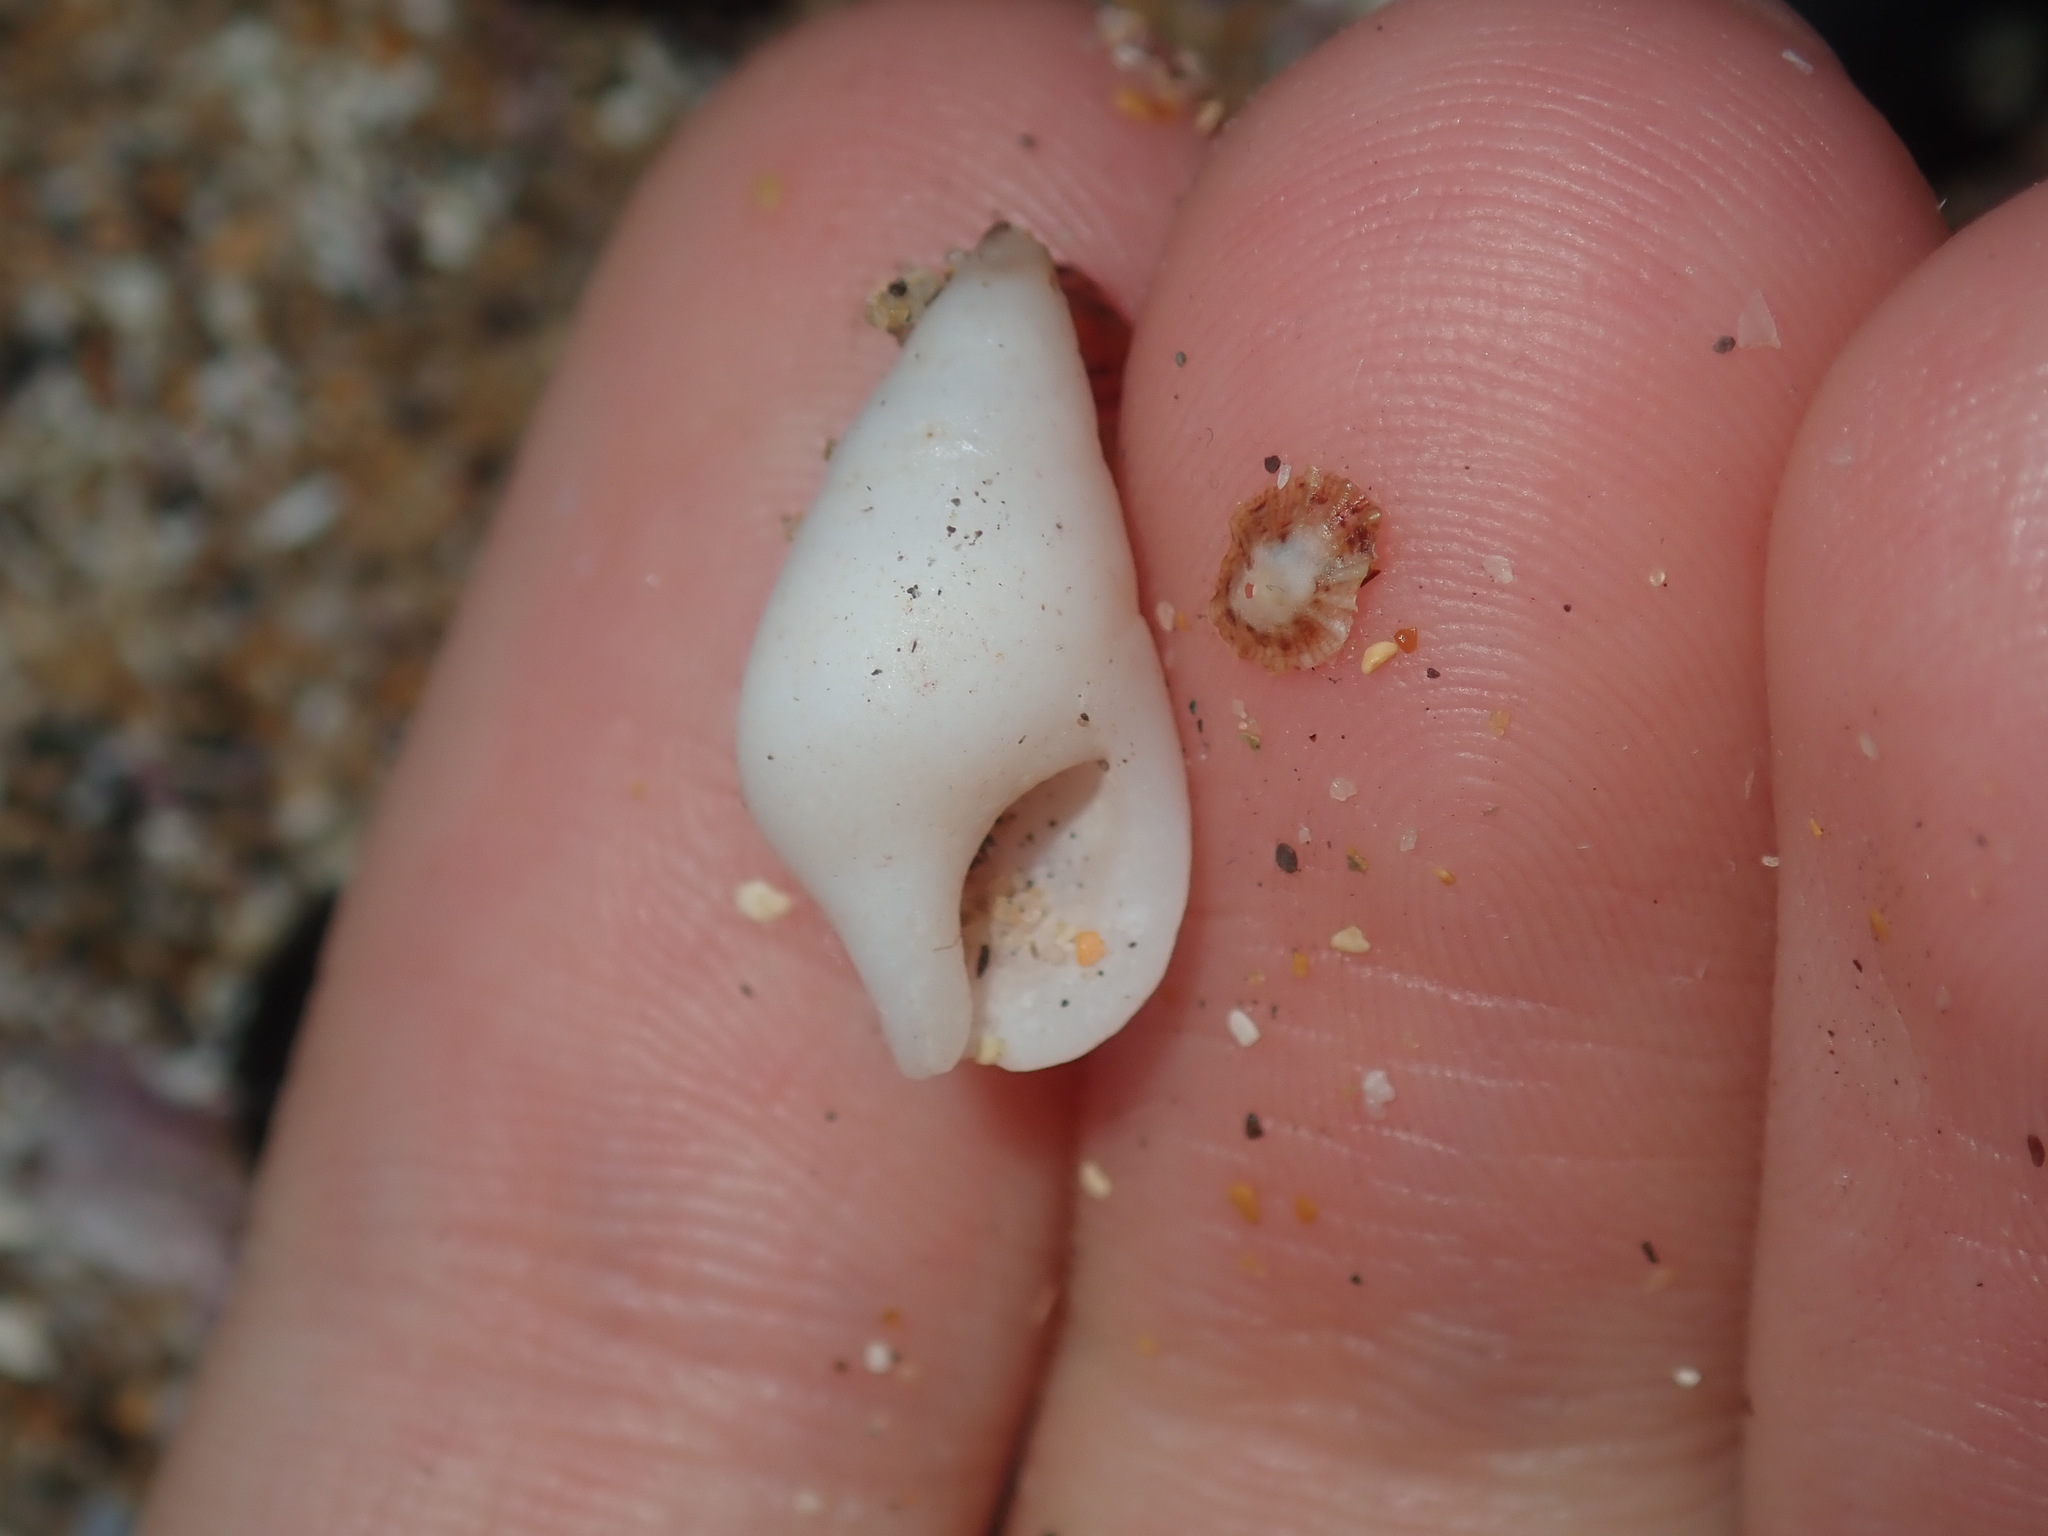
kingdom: Animalia
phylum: Mollusca
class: Gastropoda
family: Planaxidae
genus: Hinea
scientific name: Hinea brasiliana
